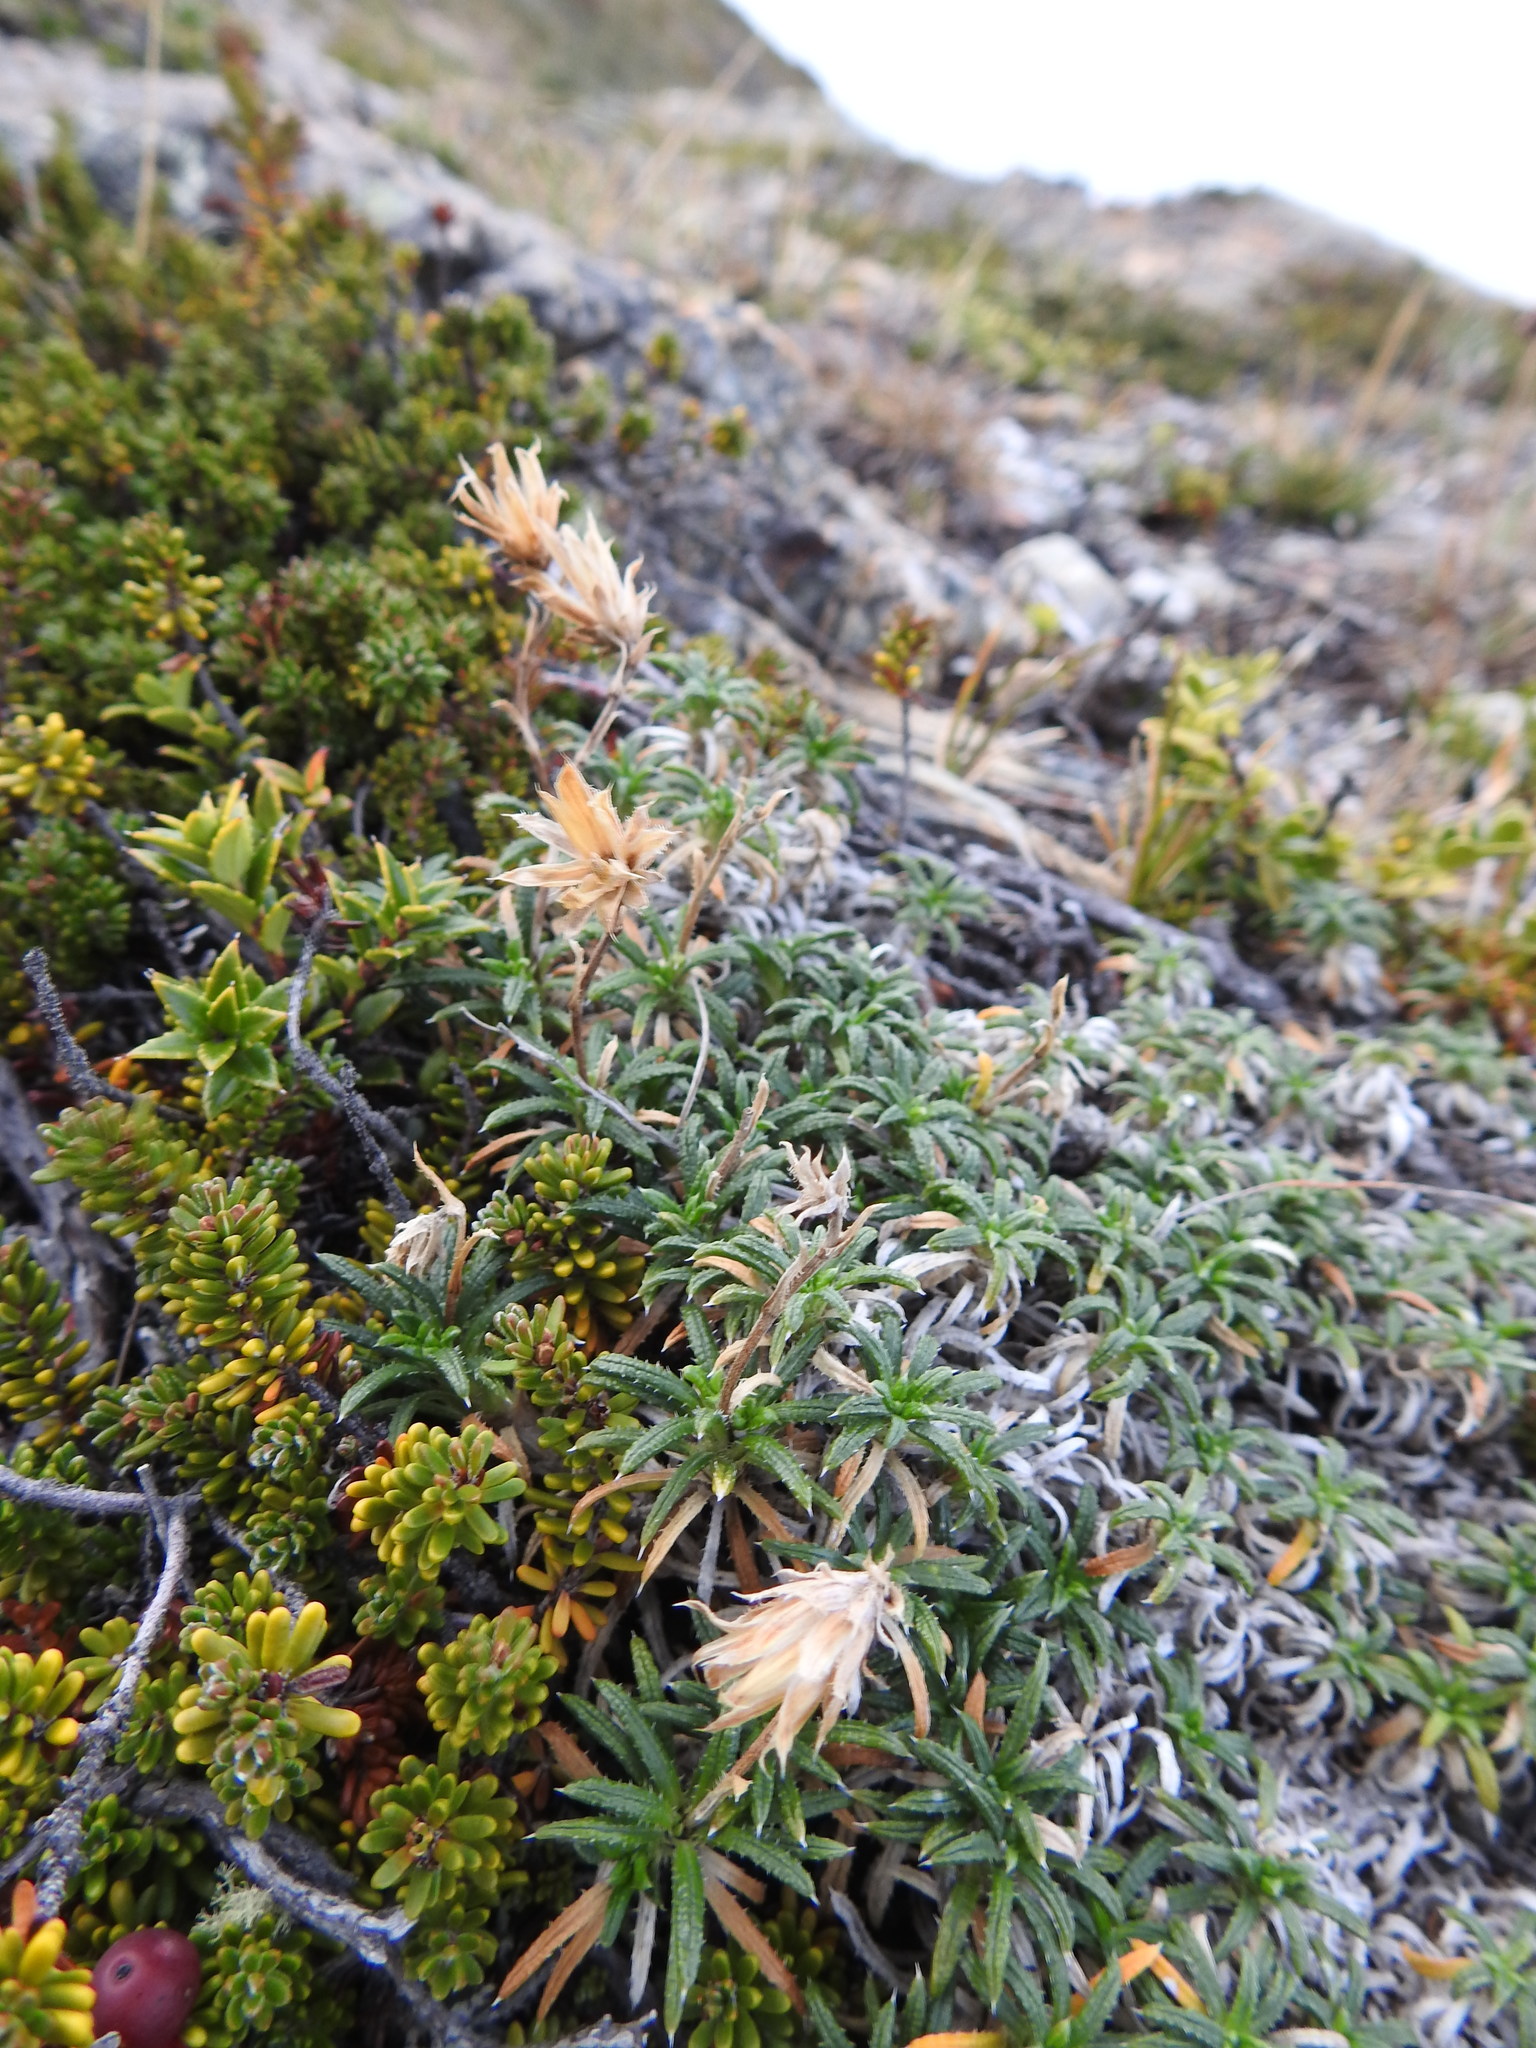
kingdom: Plantae
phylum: Tracheophyta
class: Magnoliopsida
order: Asterales
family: Asteraceae
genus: Perezia
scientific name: Perezia recurvata
